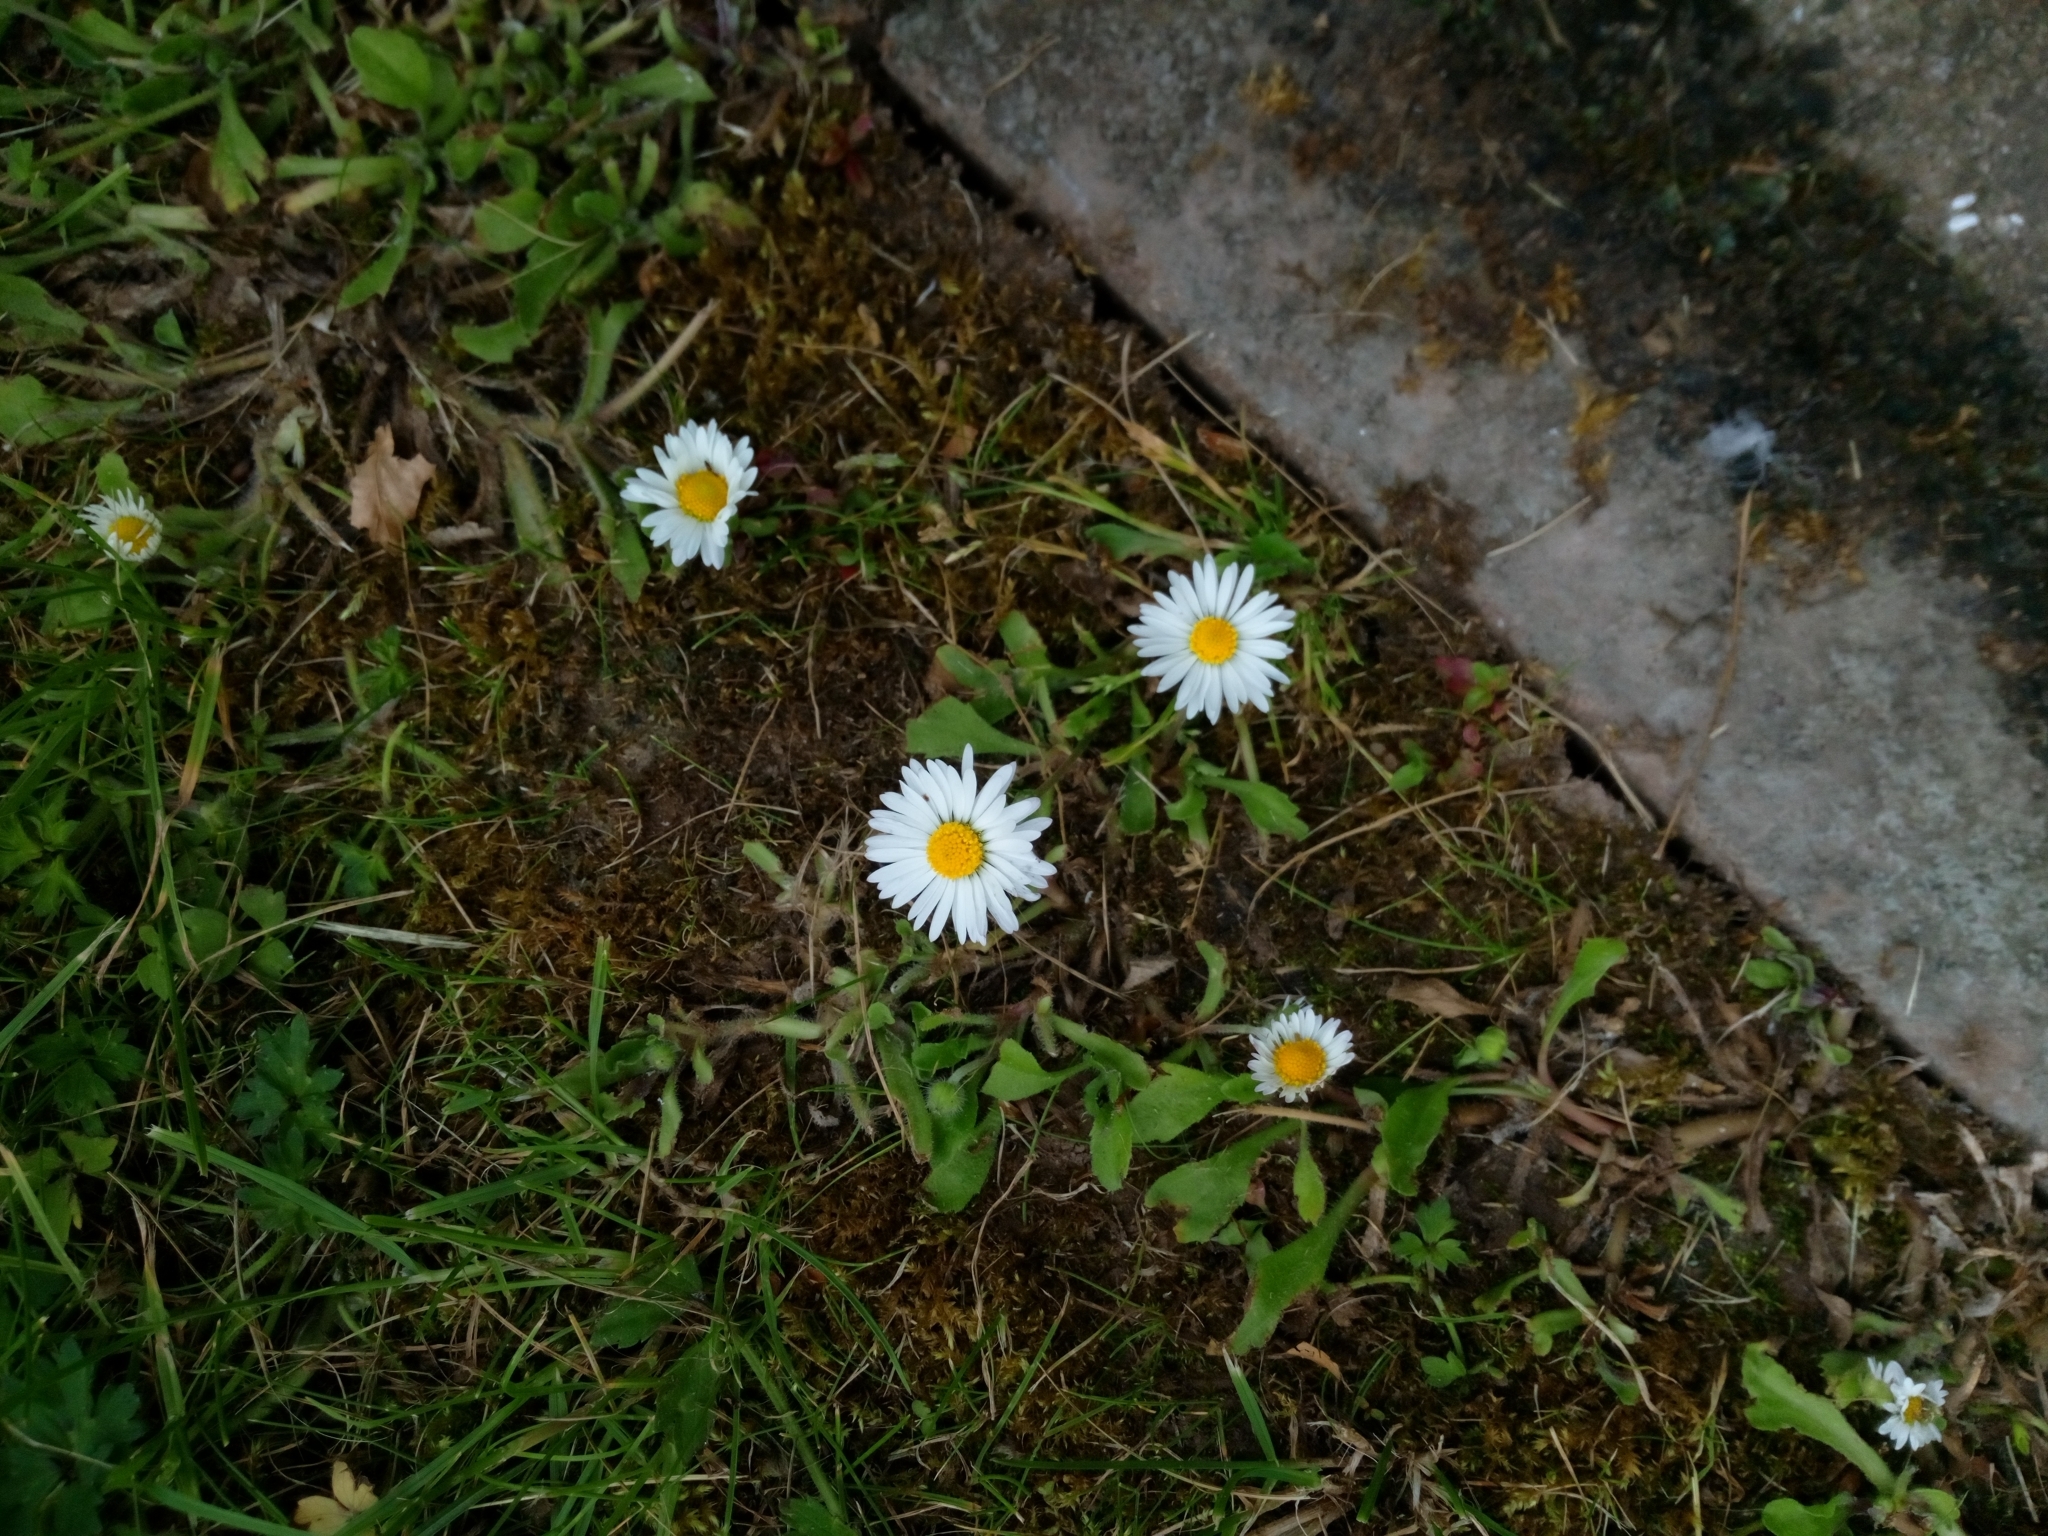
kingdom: Plantae
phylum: Tracheophyta
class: Magnoliopsida
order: Asterales
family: Asteraceae
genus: Bellis
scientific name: Bellis perennis
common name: Lawndaisy
